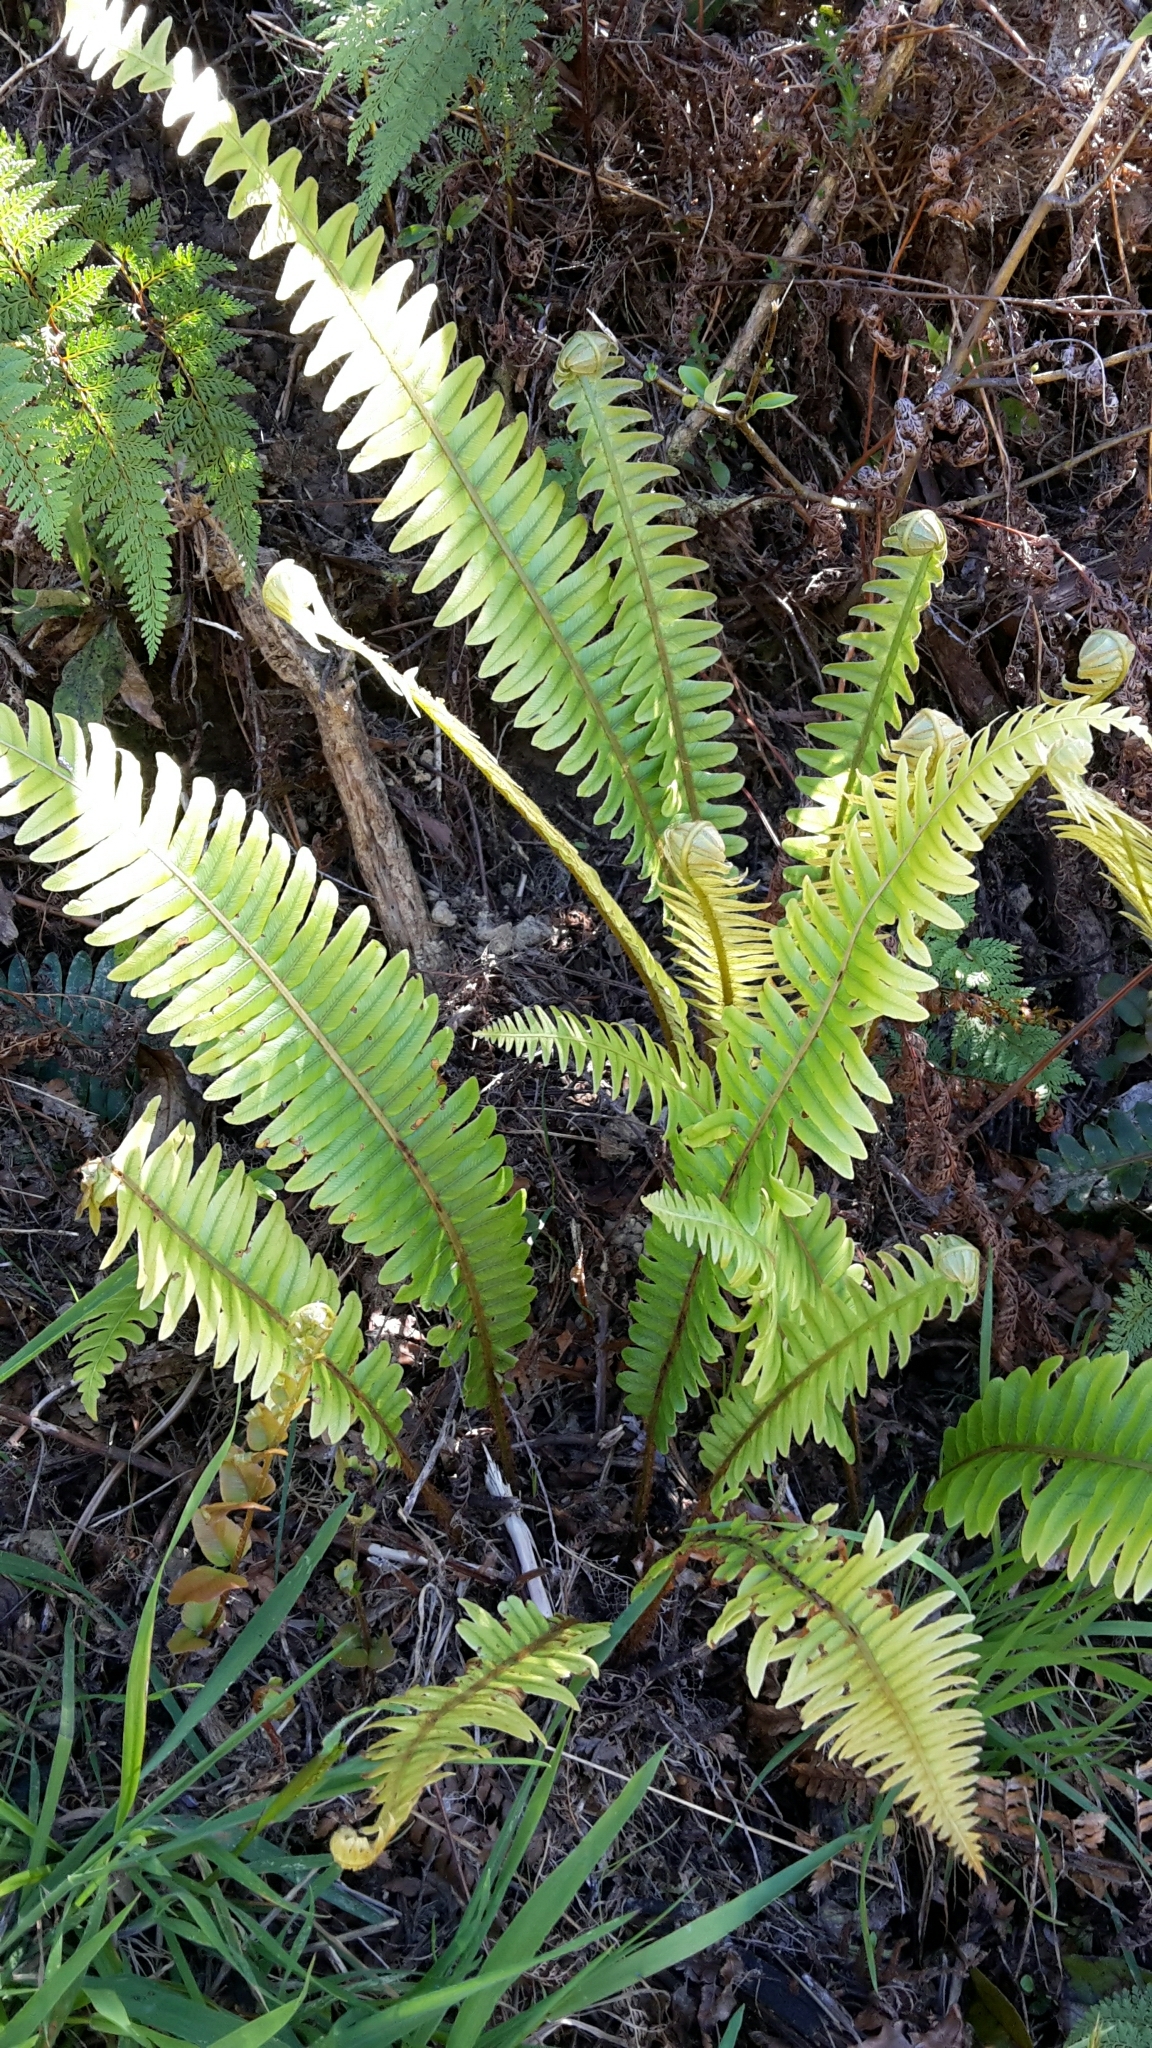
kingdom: Plantae
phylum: Tracheophyta
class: Polypodiopsida
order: Polypodiales
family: Blechnaceae
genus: Lomaria
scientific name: Lomaria discolor
